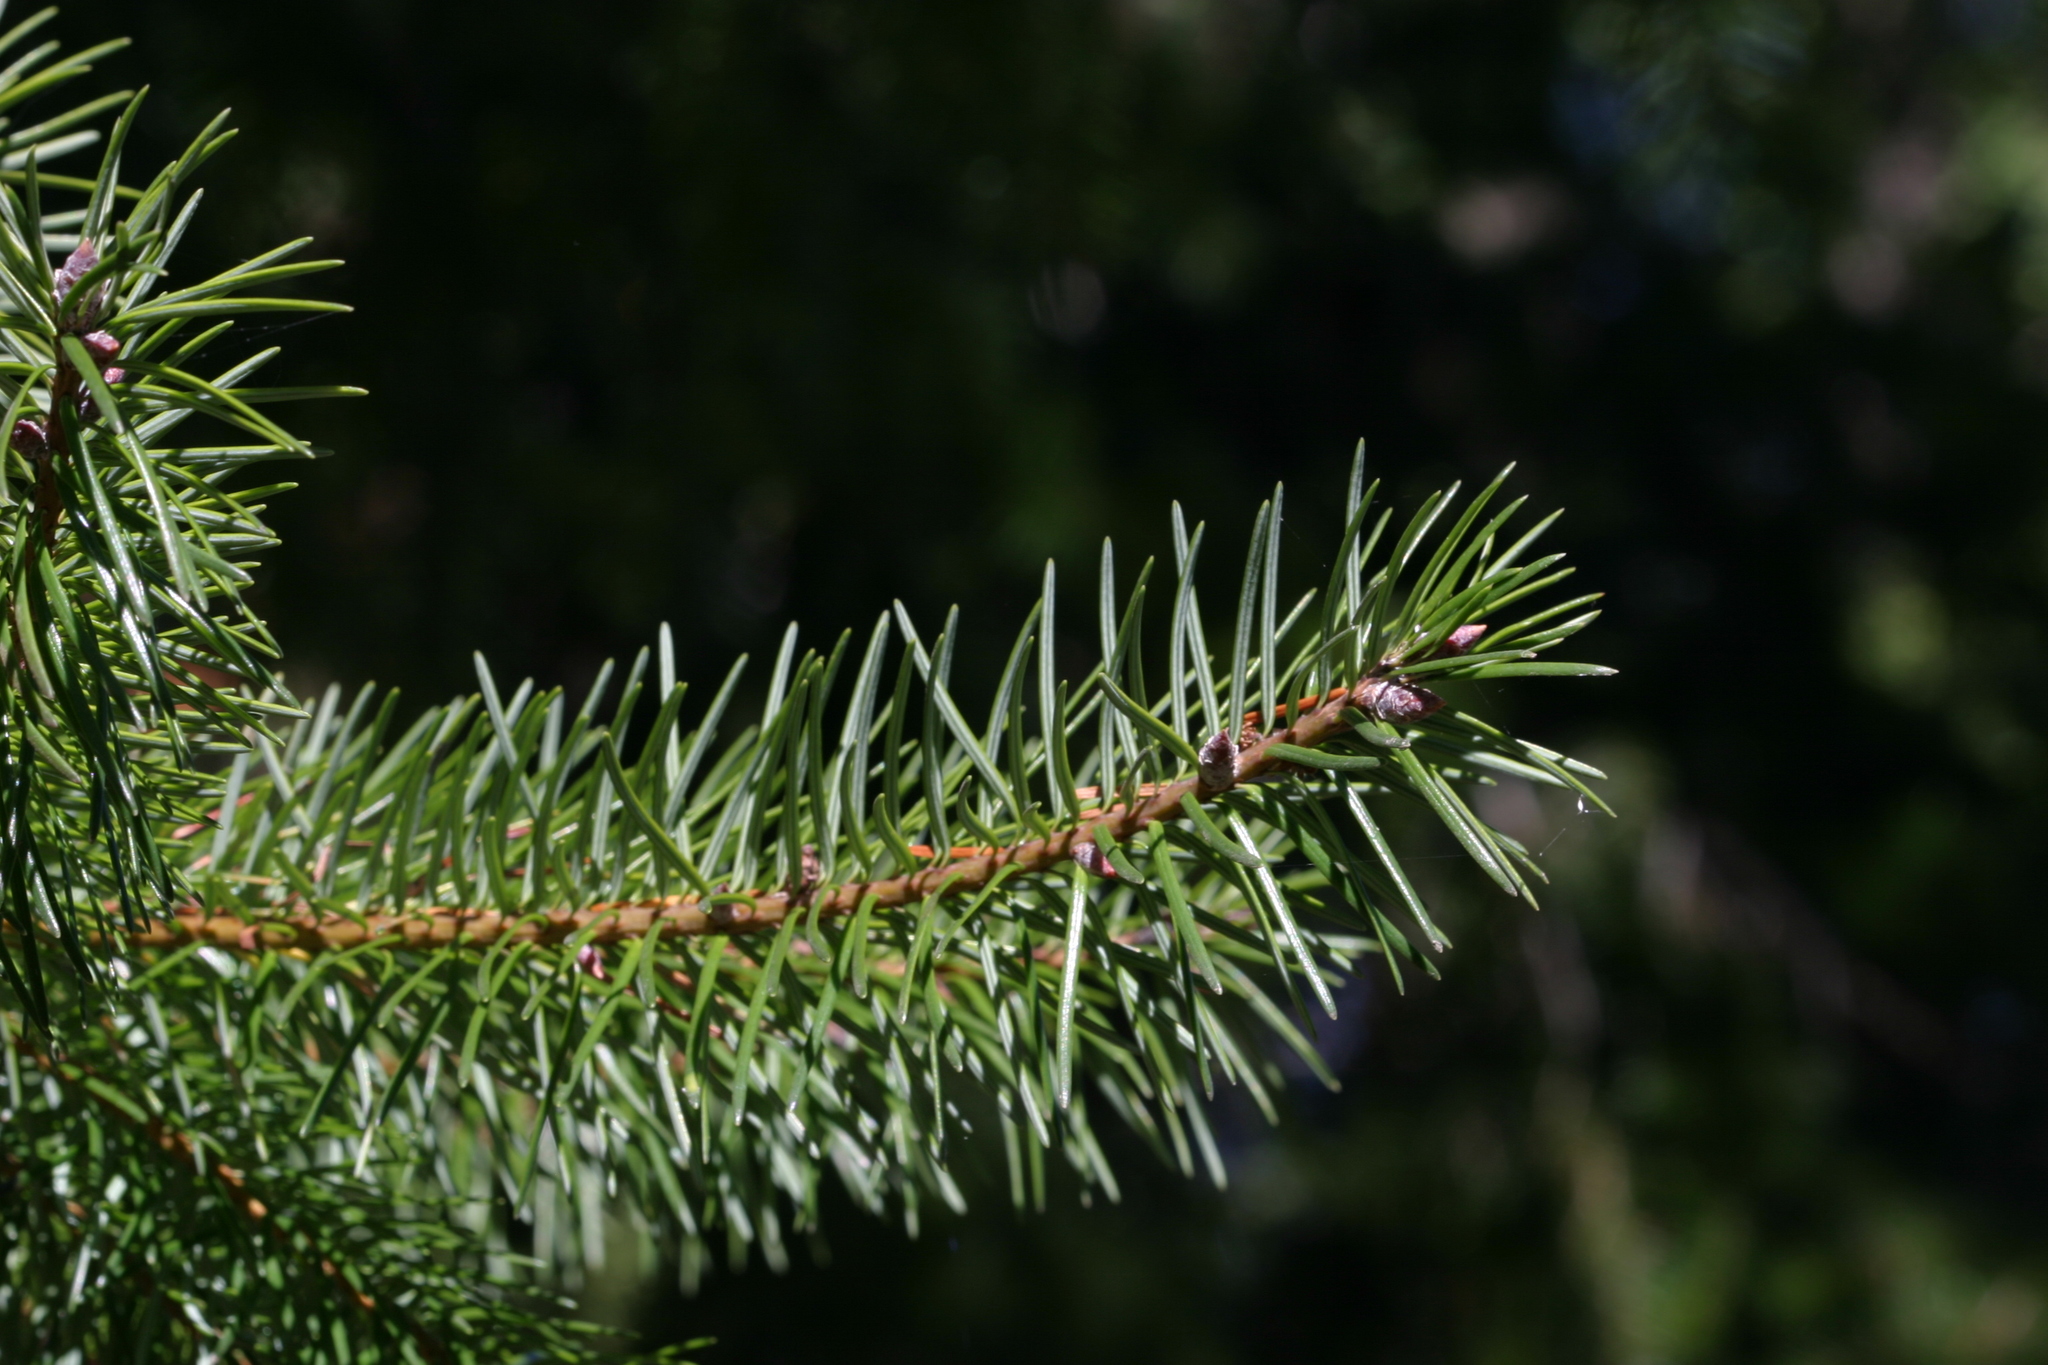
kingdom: Plantae
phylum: Tracheophyta
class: Pinopsida
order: Pinales
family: Pinaceae
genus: Pseudotsuga
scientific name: Pseudotsuga menziesii
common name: Douglas fir
